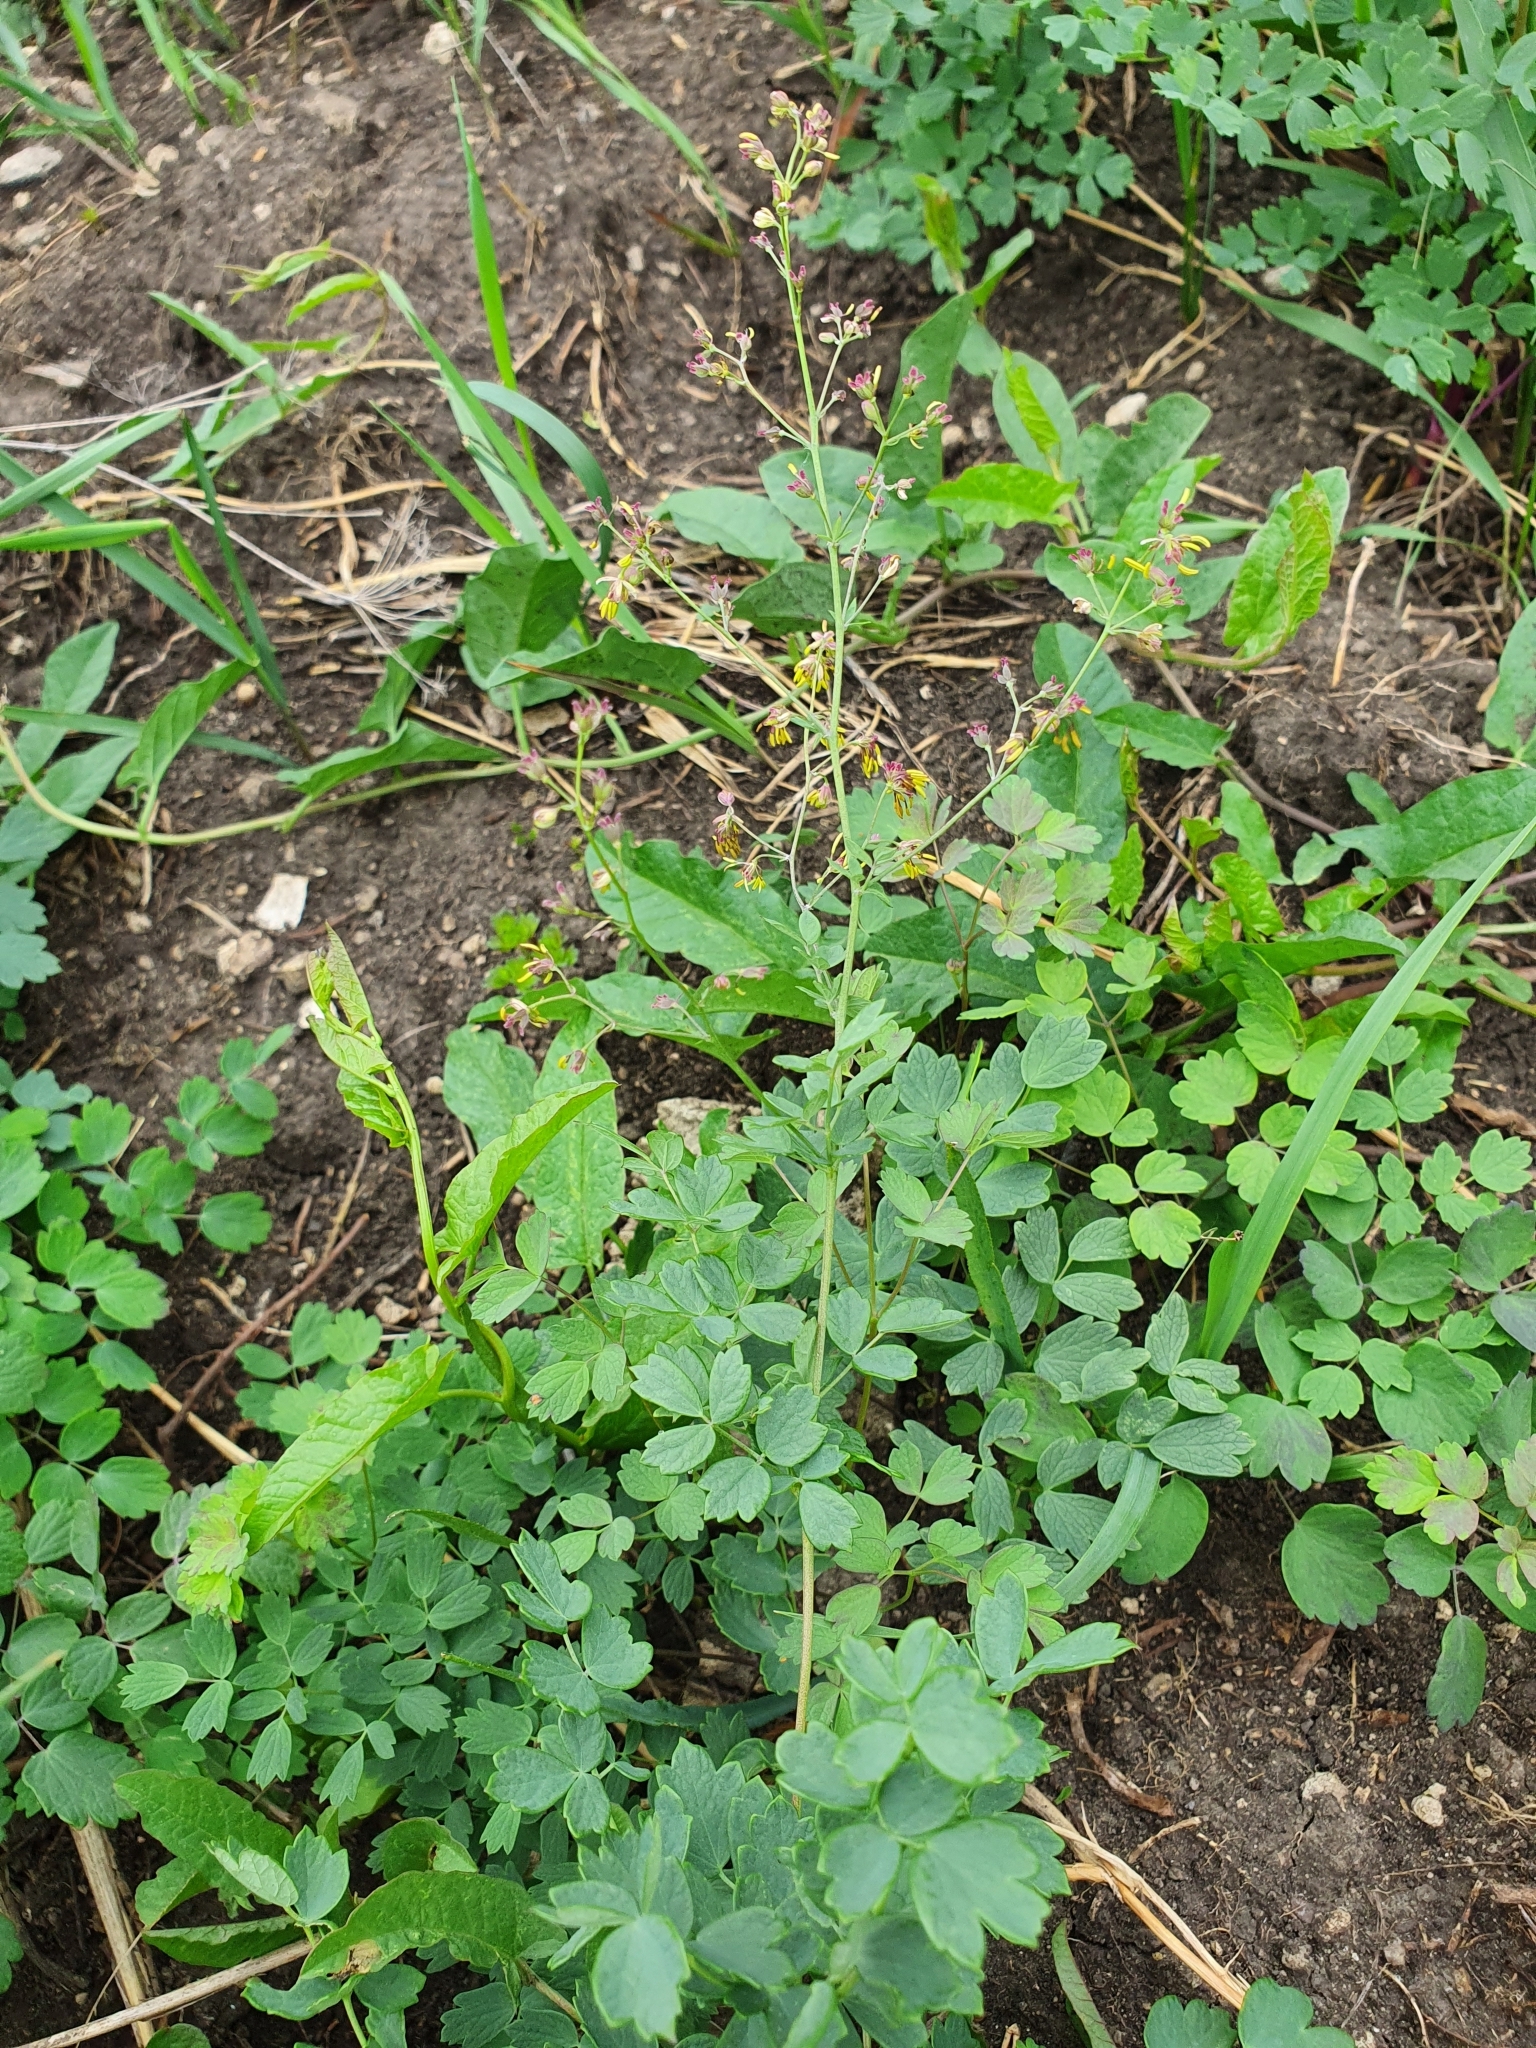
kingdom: Plantae
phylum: Tracheophyta
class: Magnoliopsida
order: Ranunculales
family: Ranunculaceae
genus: Thalictrum
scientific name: Thalictrum minus
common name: Lesser meadow-rue
